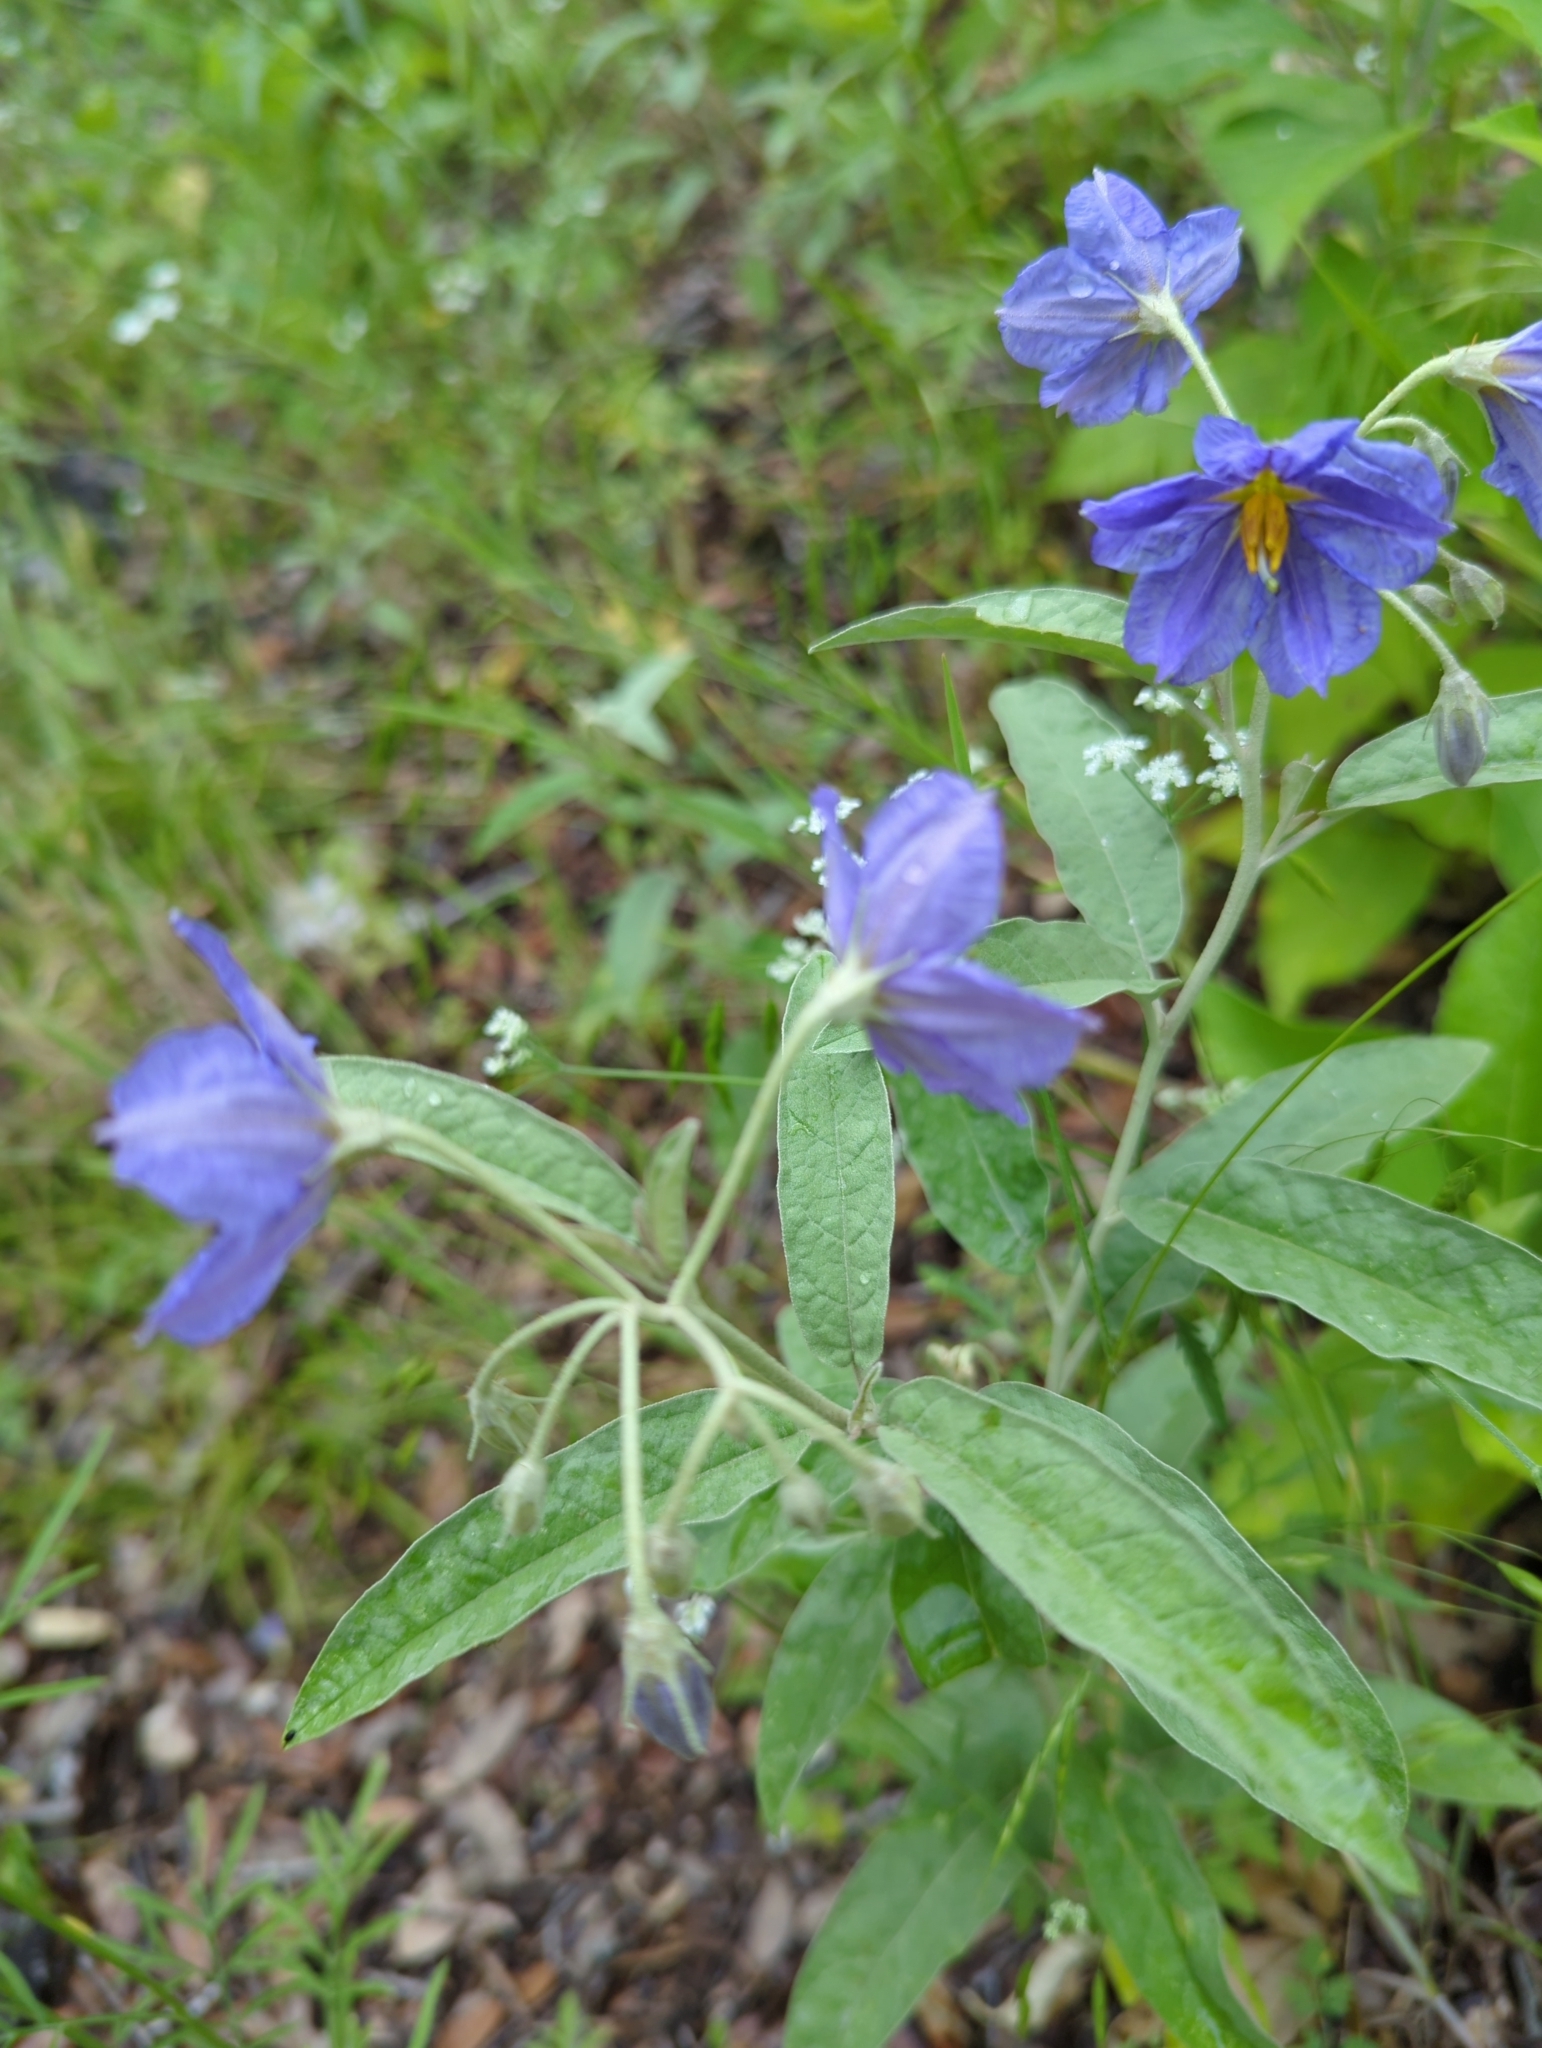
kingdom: Plantae
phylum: Tracheophyta
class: Magnoliopsida
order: Solanales
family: Solanaceae
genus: Solanum
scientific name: Solanum elaeagnifolium
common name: Silverleaf nightshade
